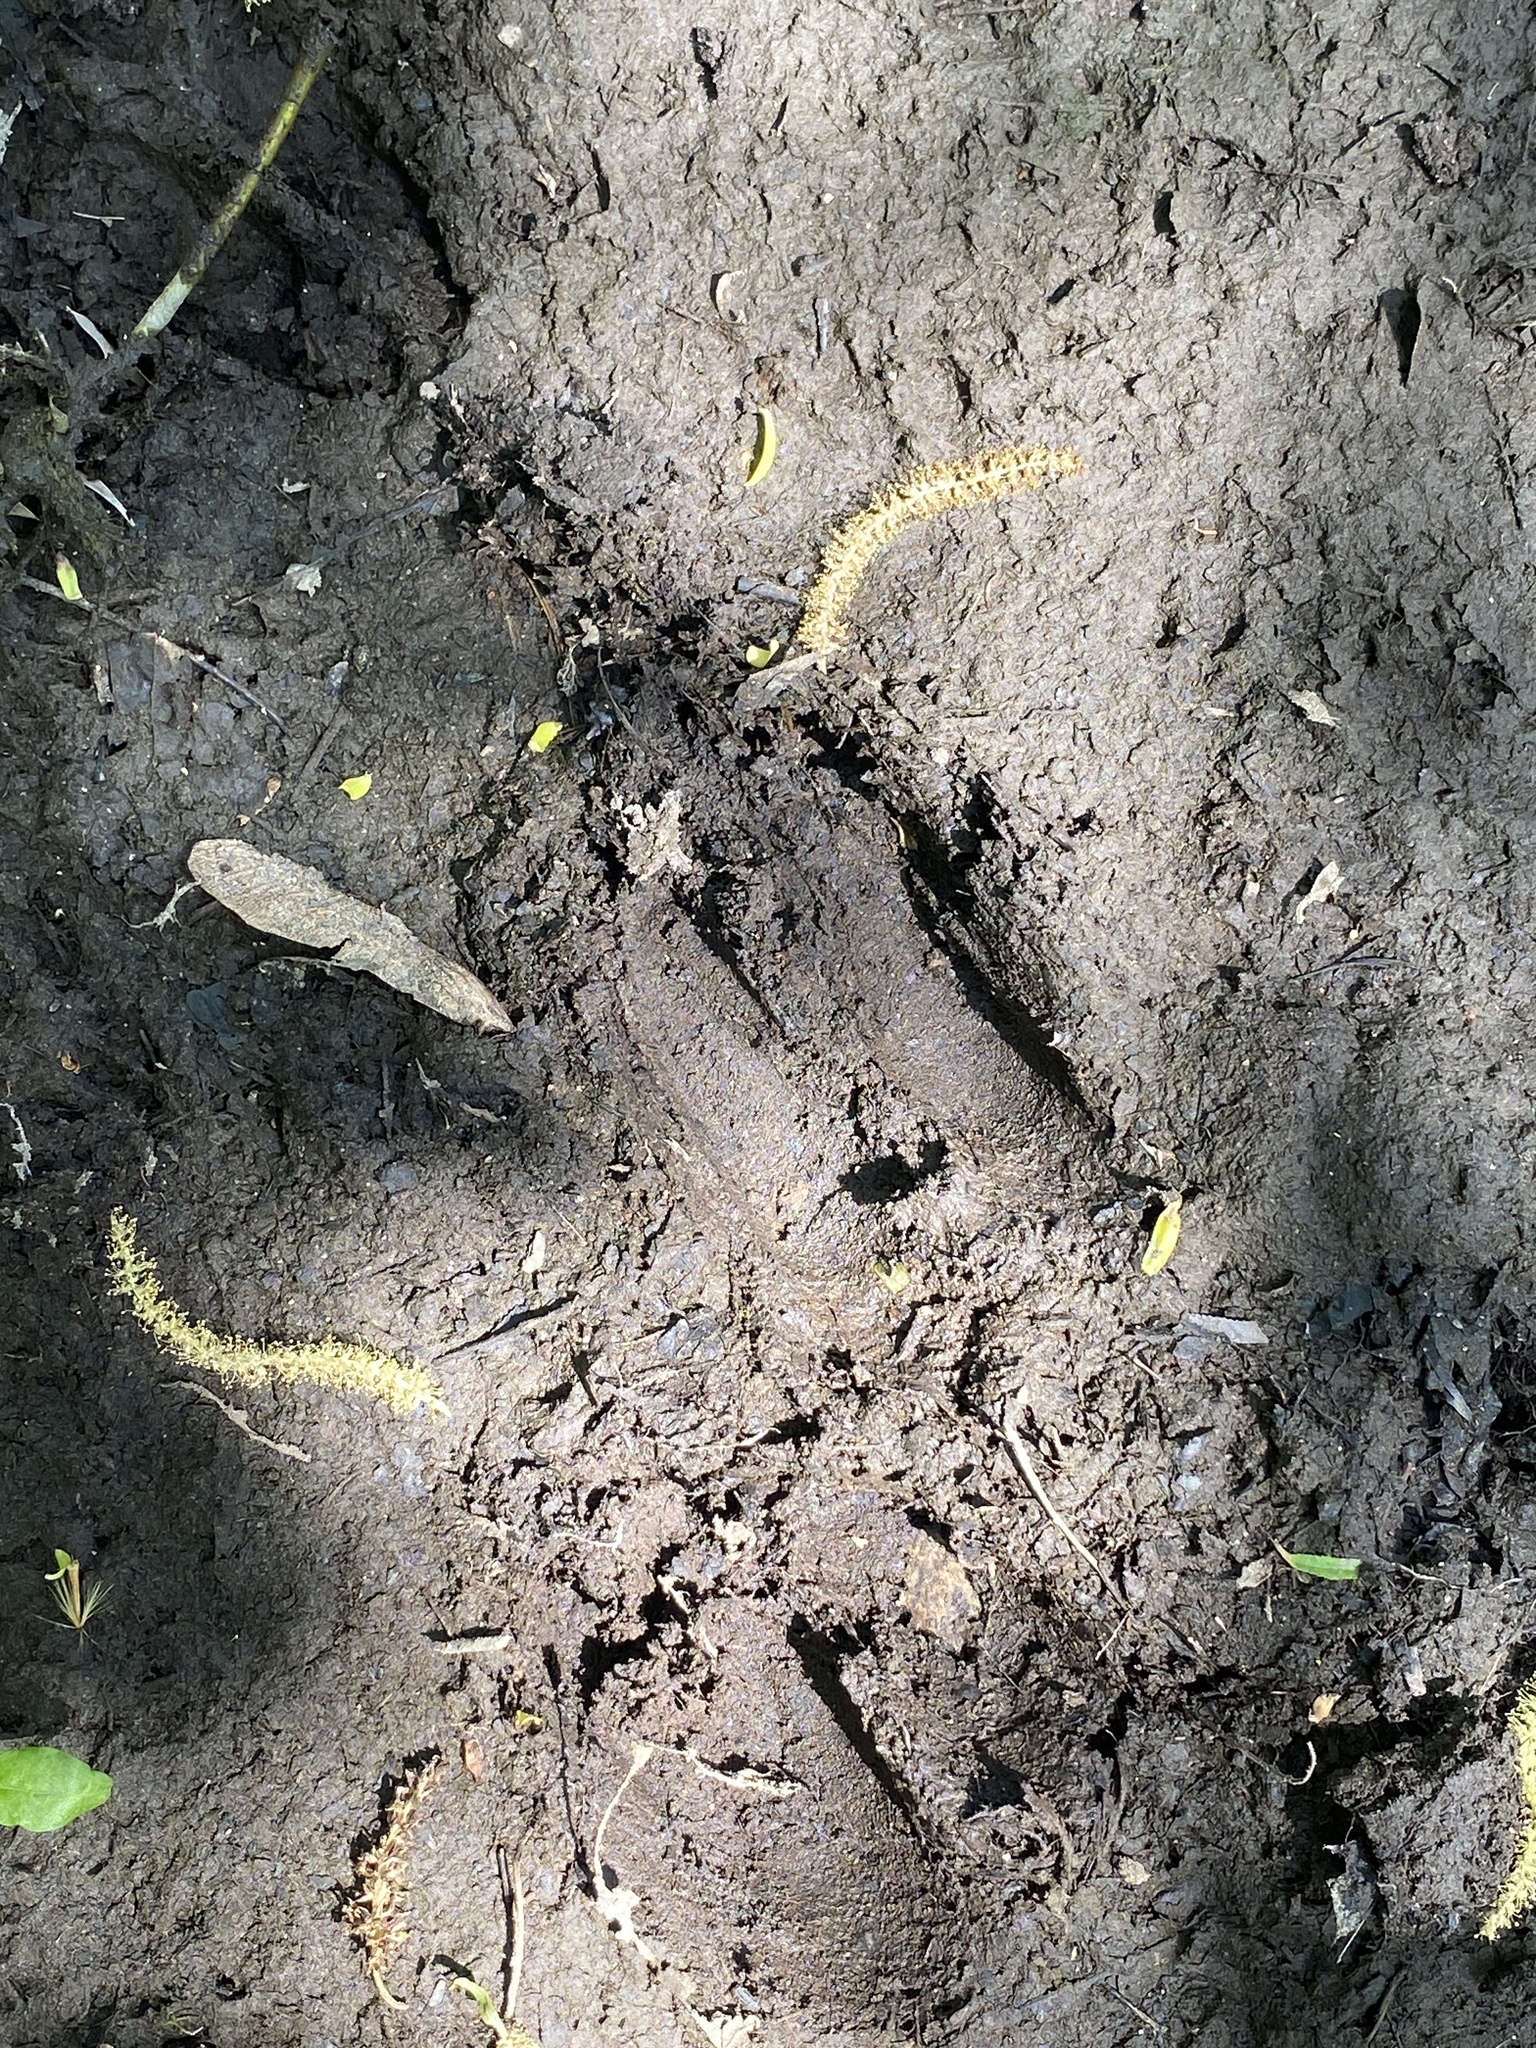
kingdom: Animalia
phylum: Chordata
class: Mammalia
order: Artiodactyla
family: Cervidae
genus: Odocoileus
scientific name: Odocoileus virginianus
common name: White-tailed deer
